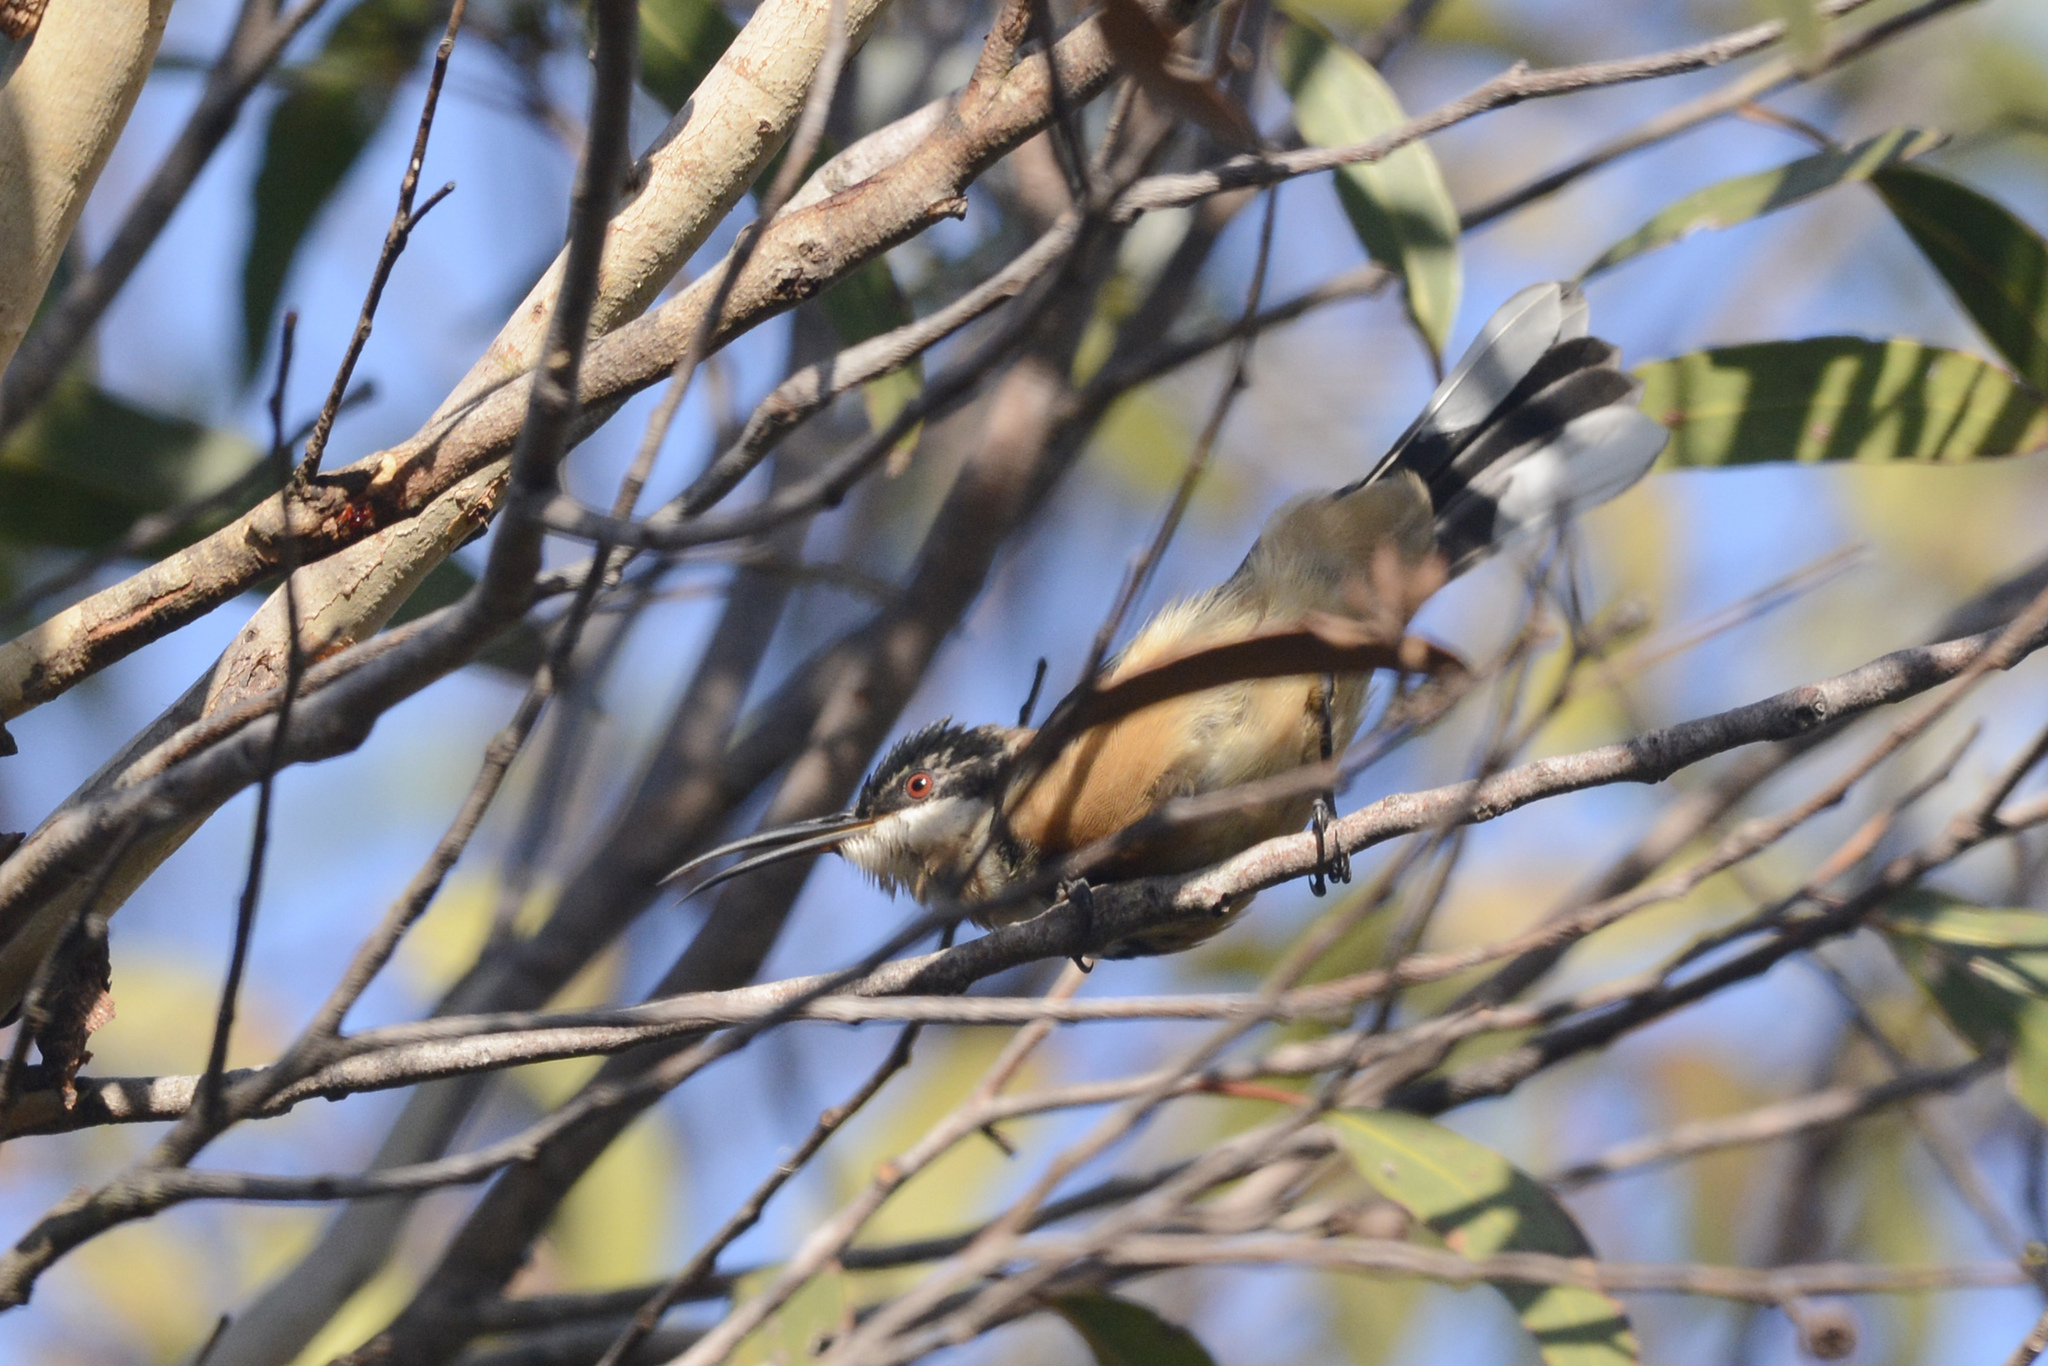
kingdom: Animalia
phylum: Chordata
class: Aves
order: Passeriformes
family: Meliphagidae
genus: Acanthorhynchus
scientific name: Acanthorhynchus tenuirostris
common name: Eastern spinebill
